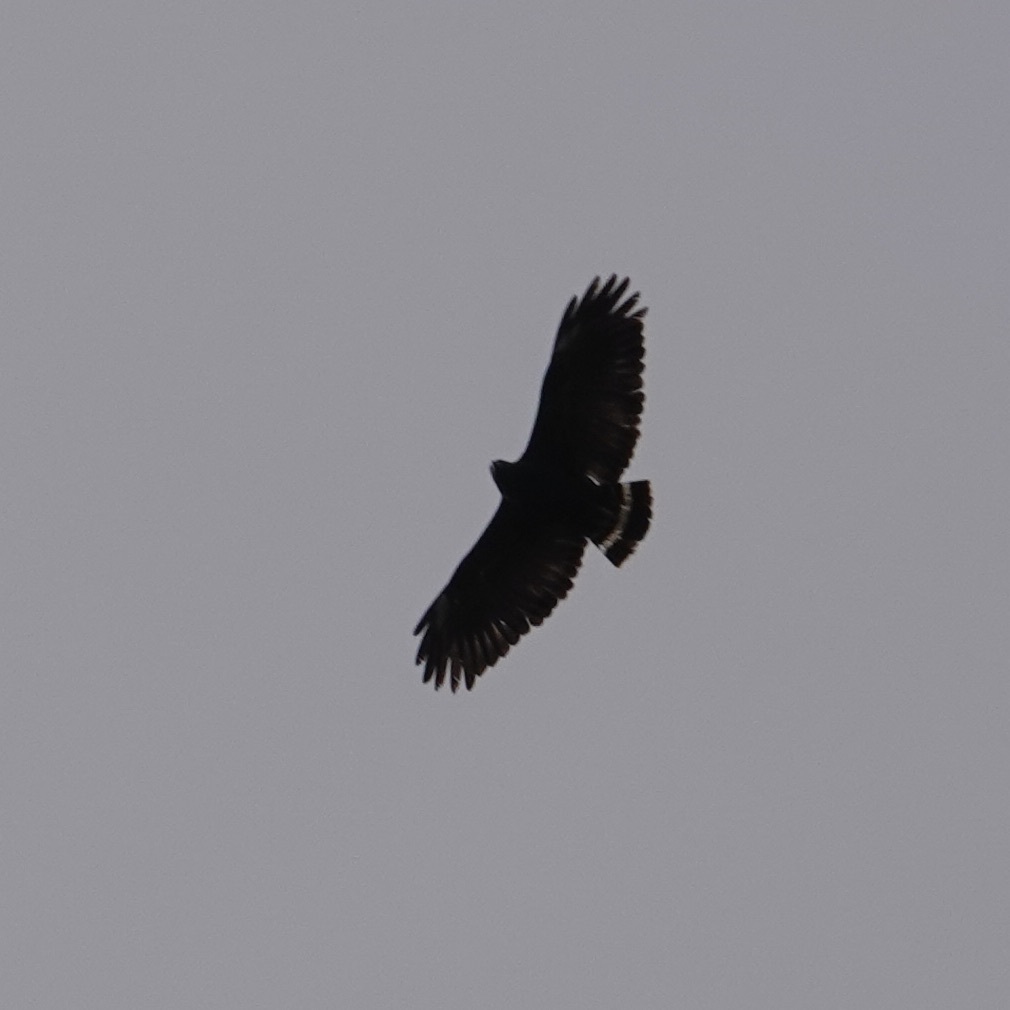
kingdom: Animalia
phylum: Chordata
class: Aves
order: Accipitriformes
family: Accipitridae
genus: Buteogallus
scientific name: Buteogallus anthracinus
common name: Common black hawk
